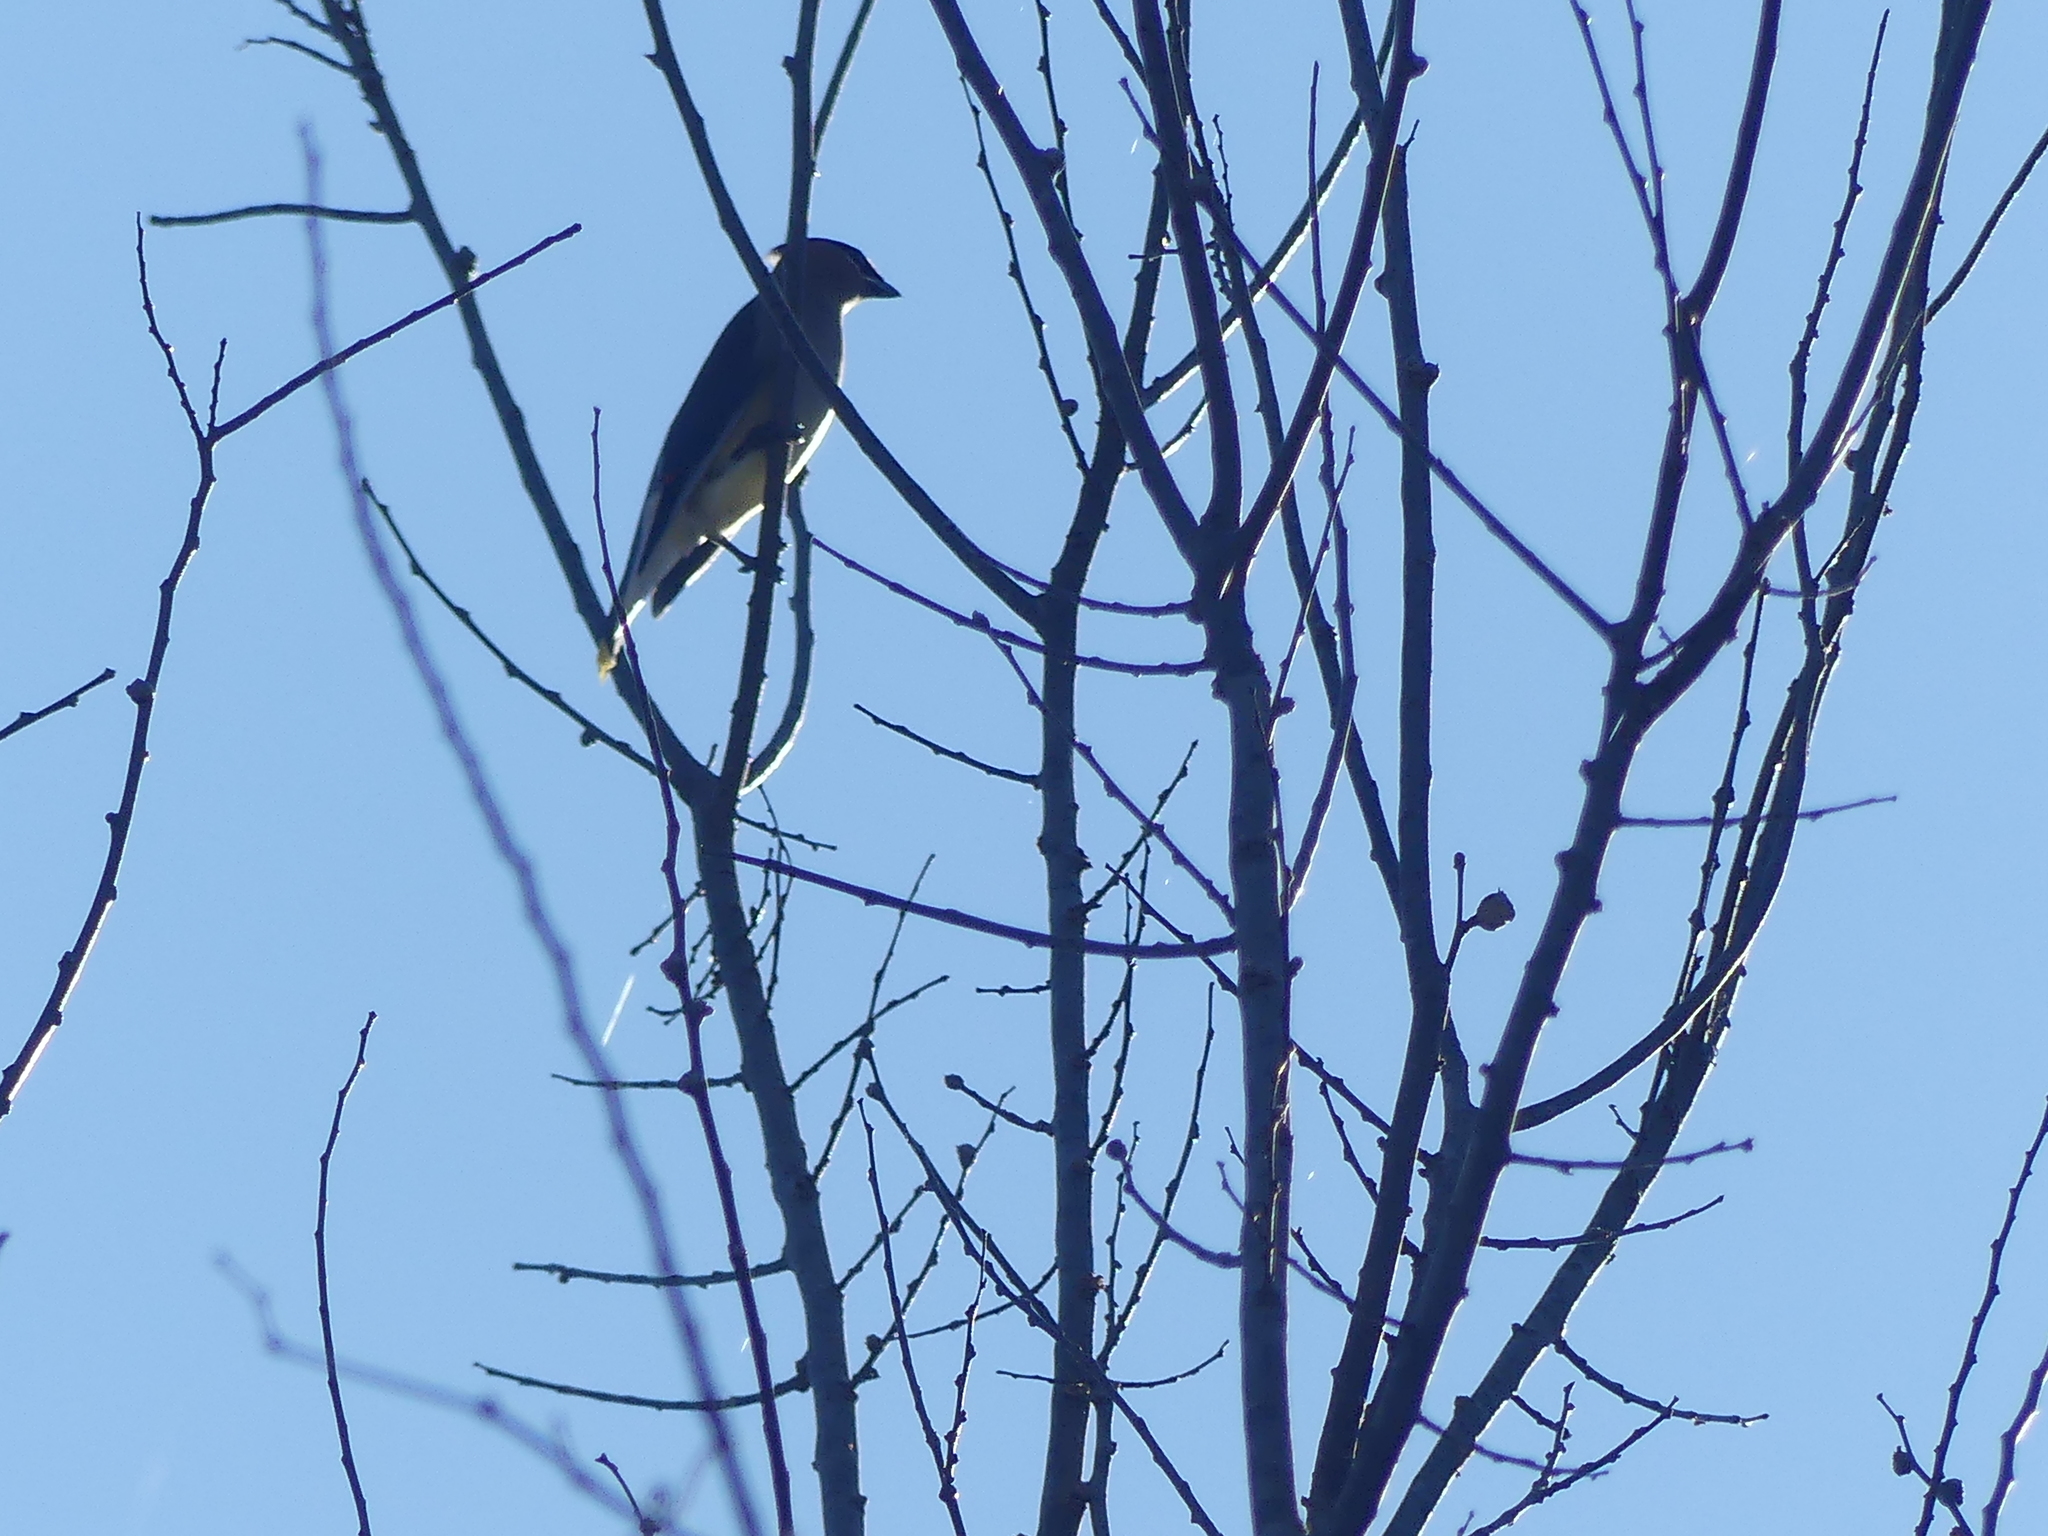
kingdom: Animalia
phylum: Chordata
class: Aves
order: Passeriformes
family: Bombycillidae
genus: Bombycilla
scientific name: Bombycilla cedrorum
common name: Cedar waxwing
